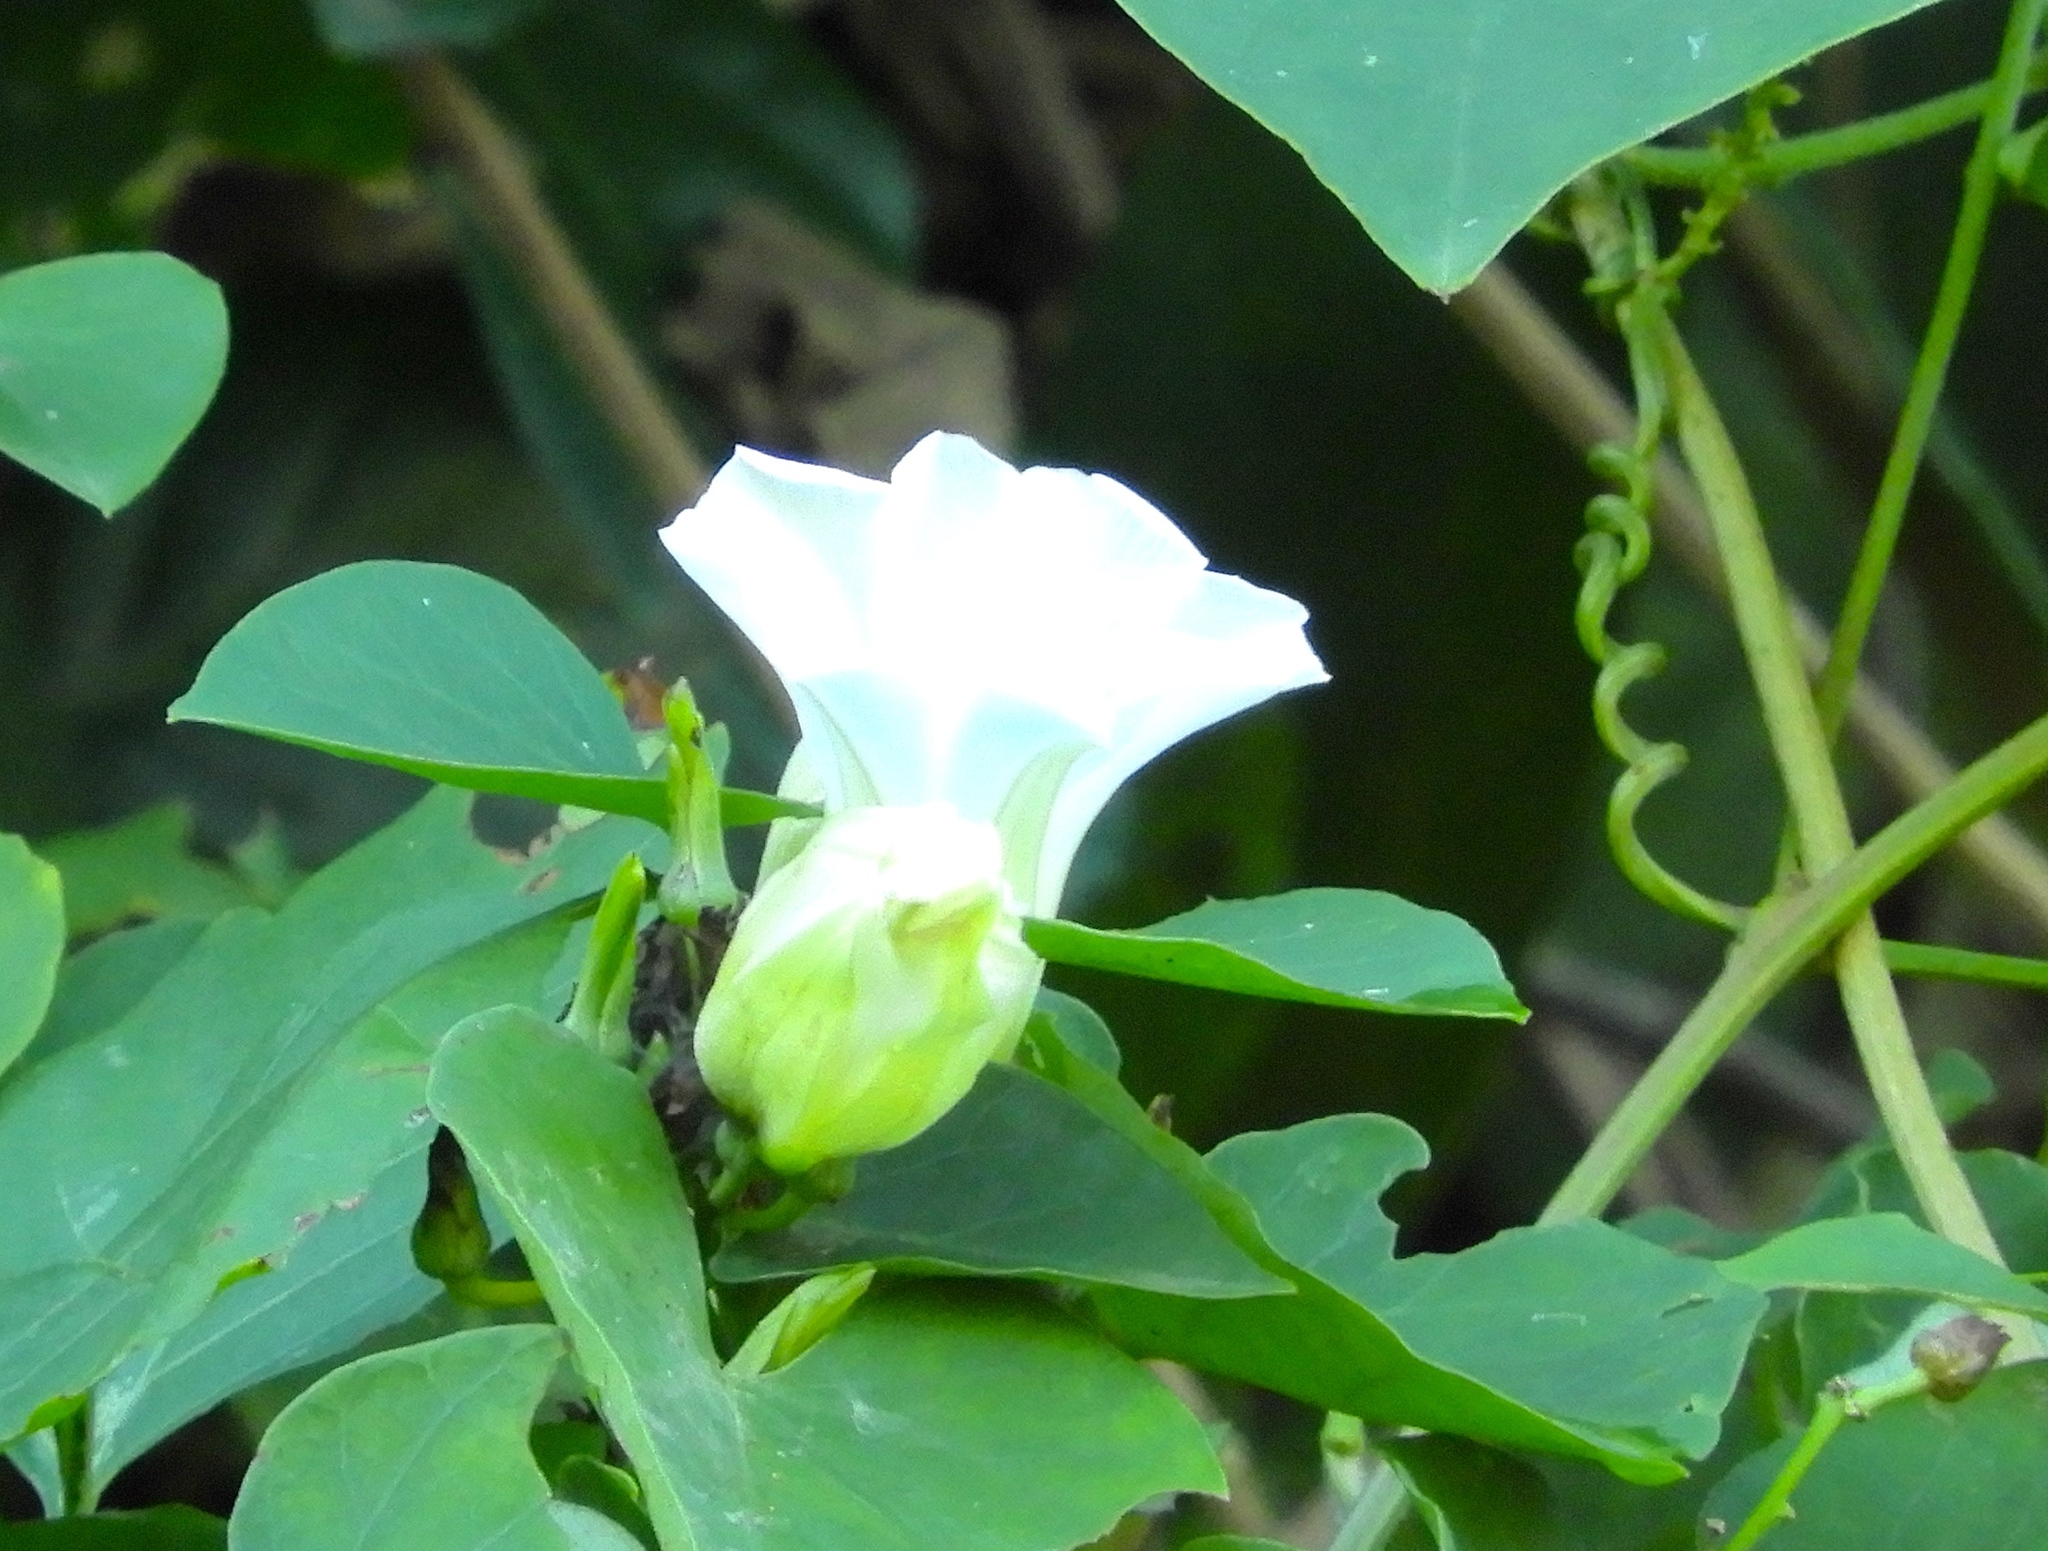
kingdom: Plantae
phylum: Tracheophyta
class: Magnoliopsida
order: Solanales
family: Convolvulaceae
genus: Ipomoea
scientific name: Ipomoea corymbosa
